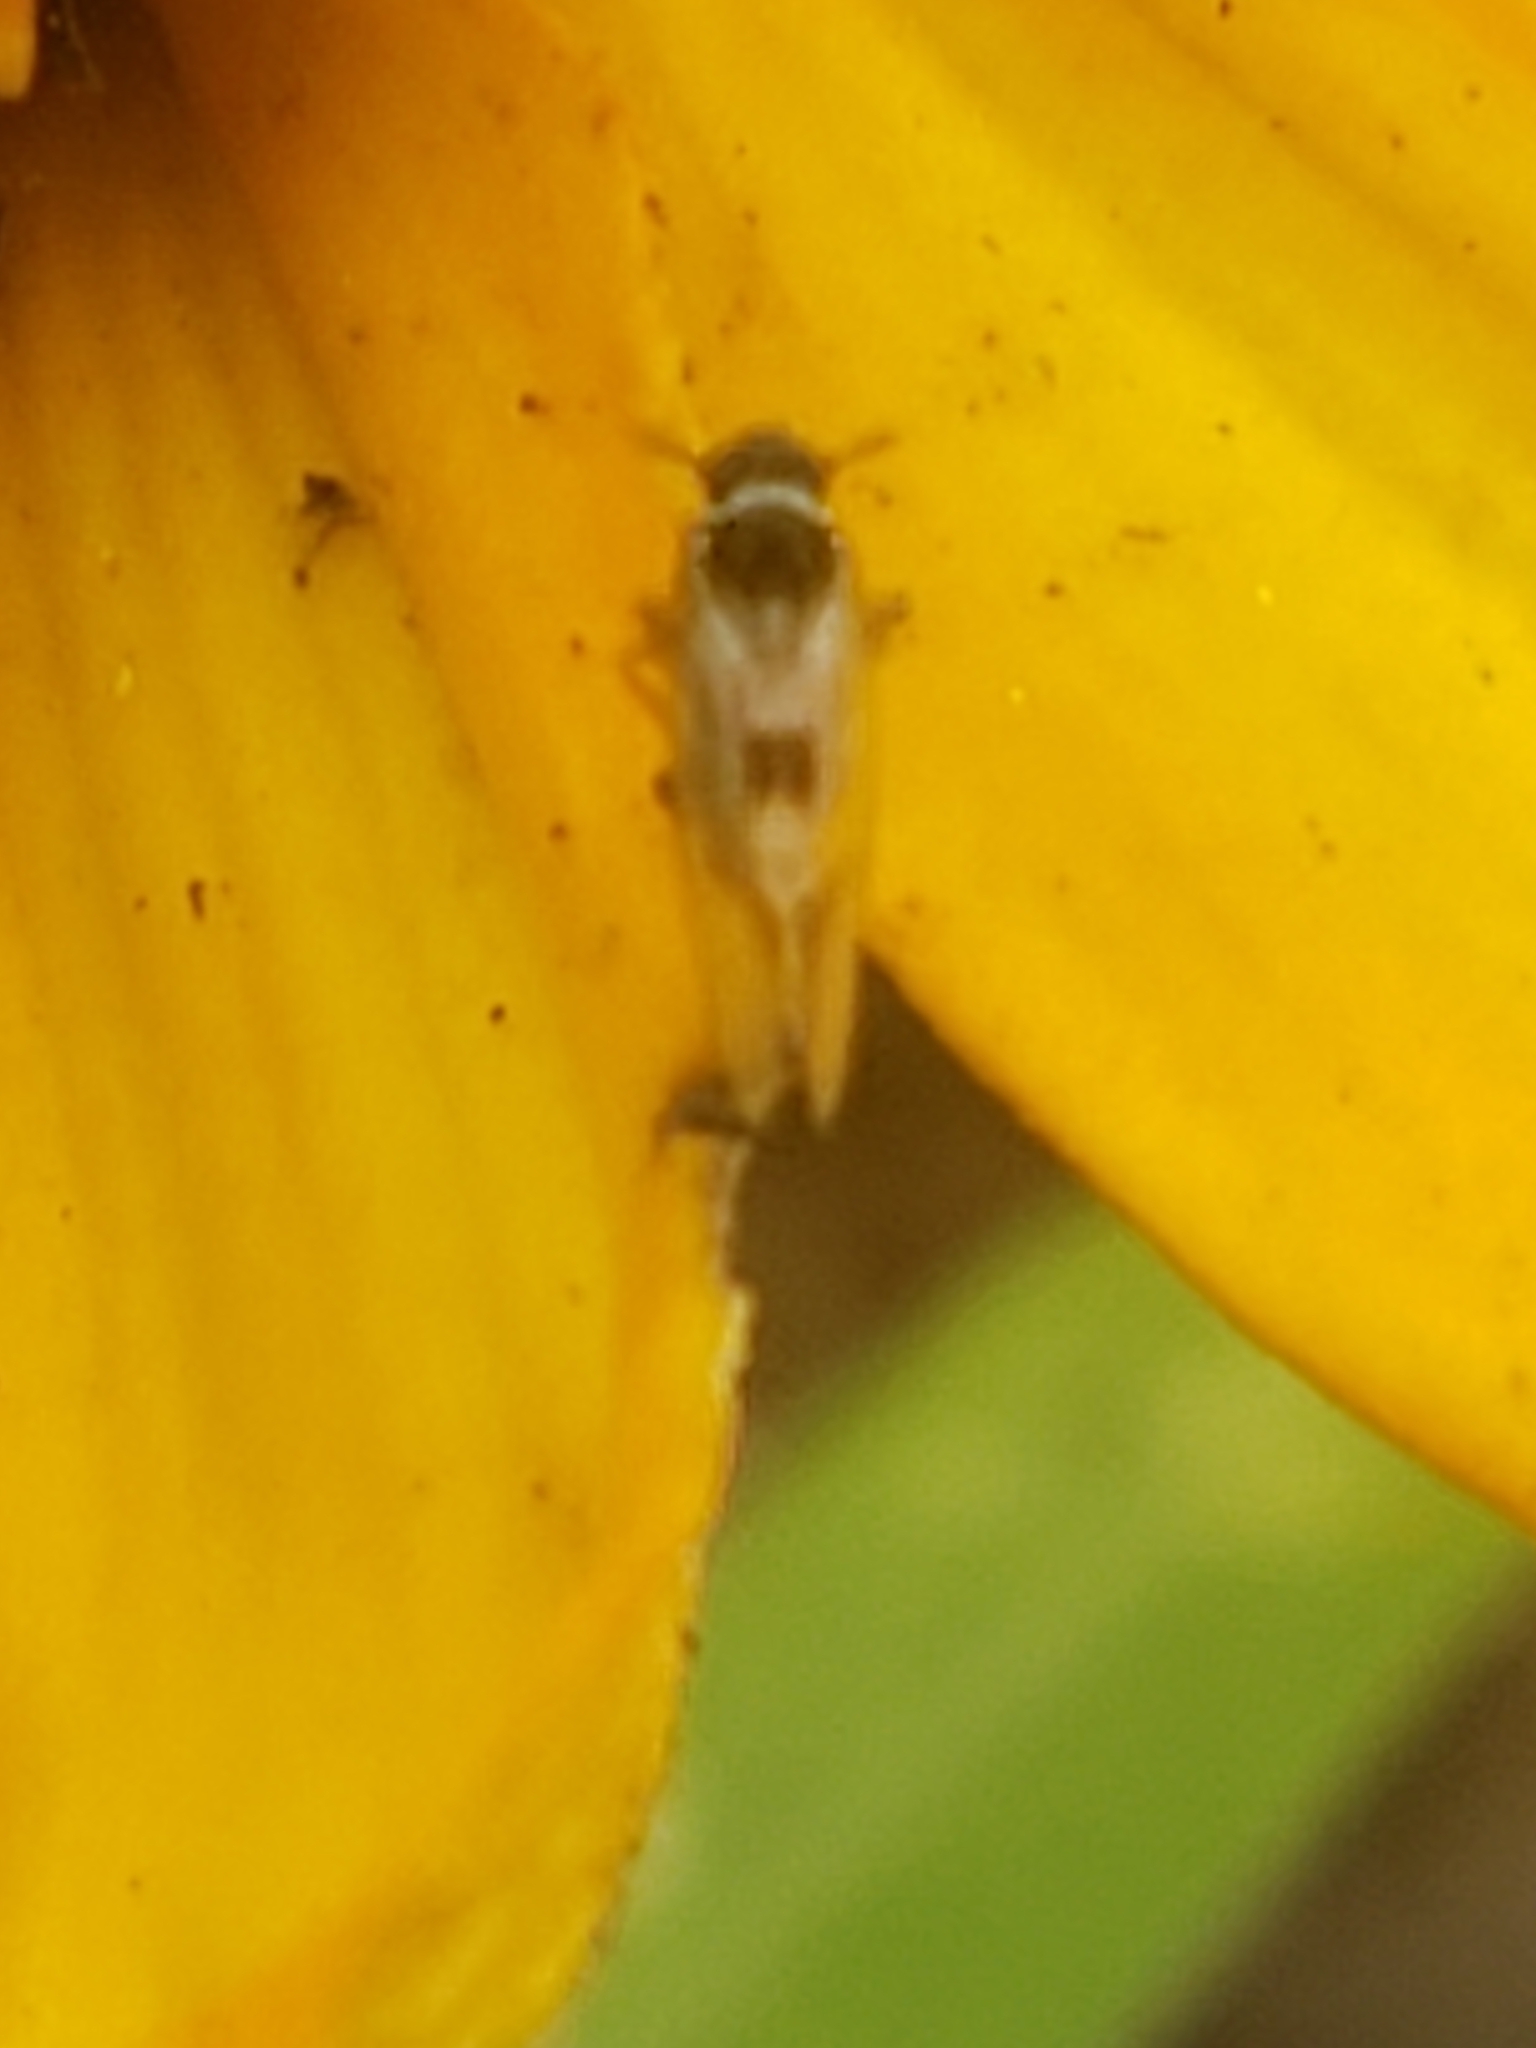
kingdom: Animalia
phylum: Arthropoda
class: Insecta
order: Hemiptera
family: Delphacidae
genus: Chionomus
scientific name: Chionomus
